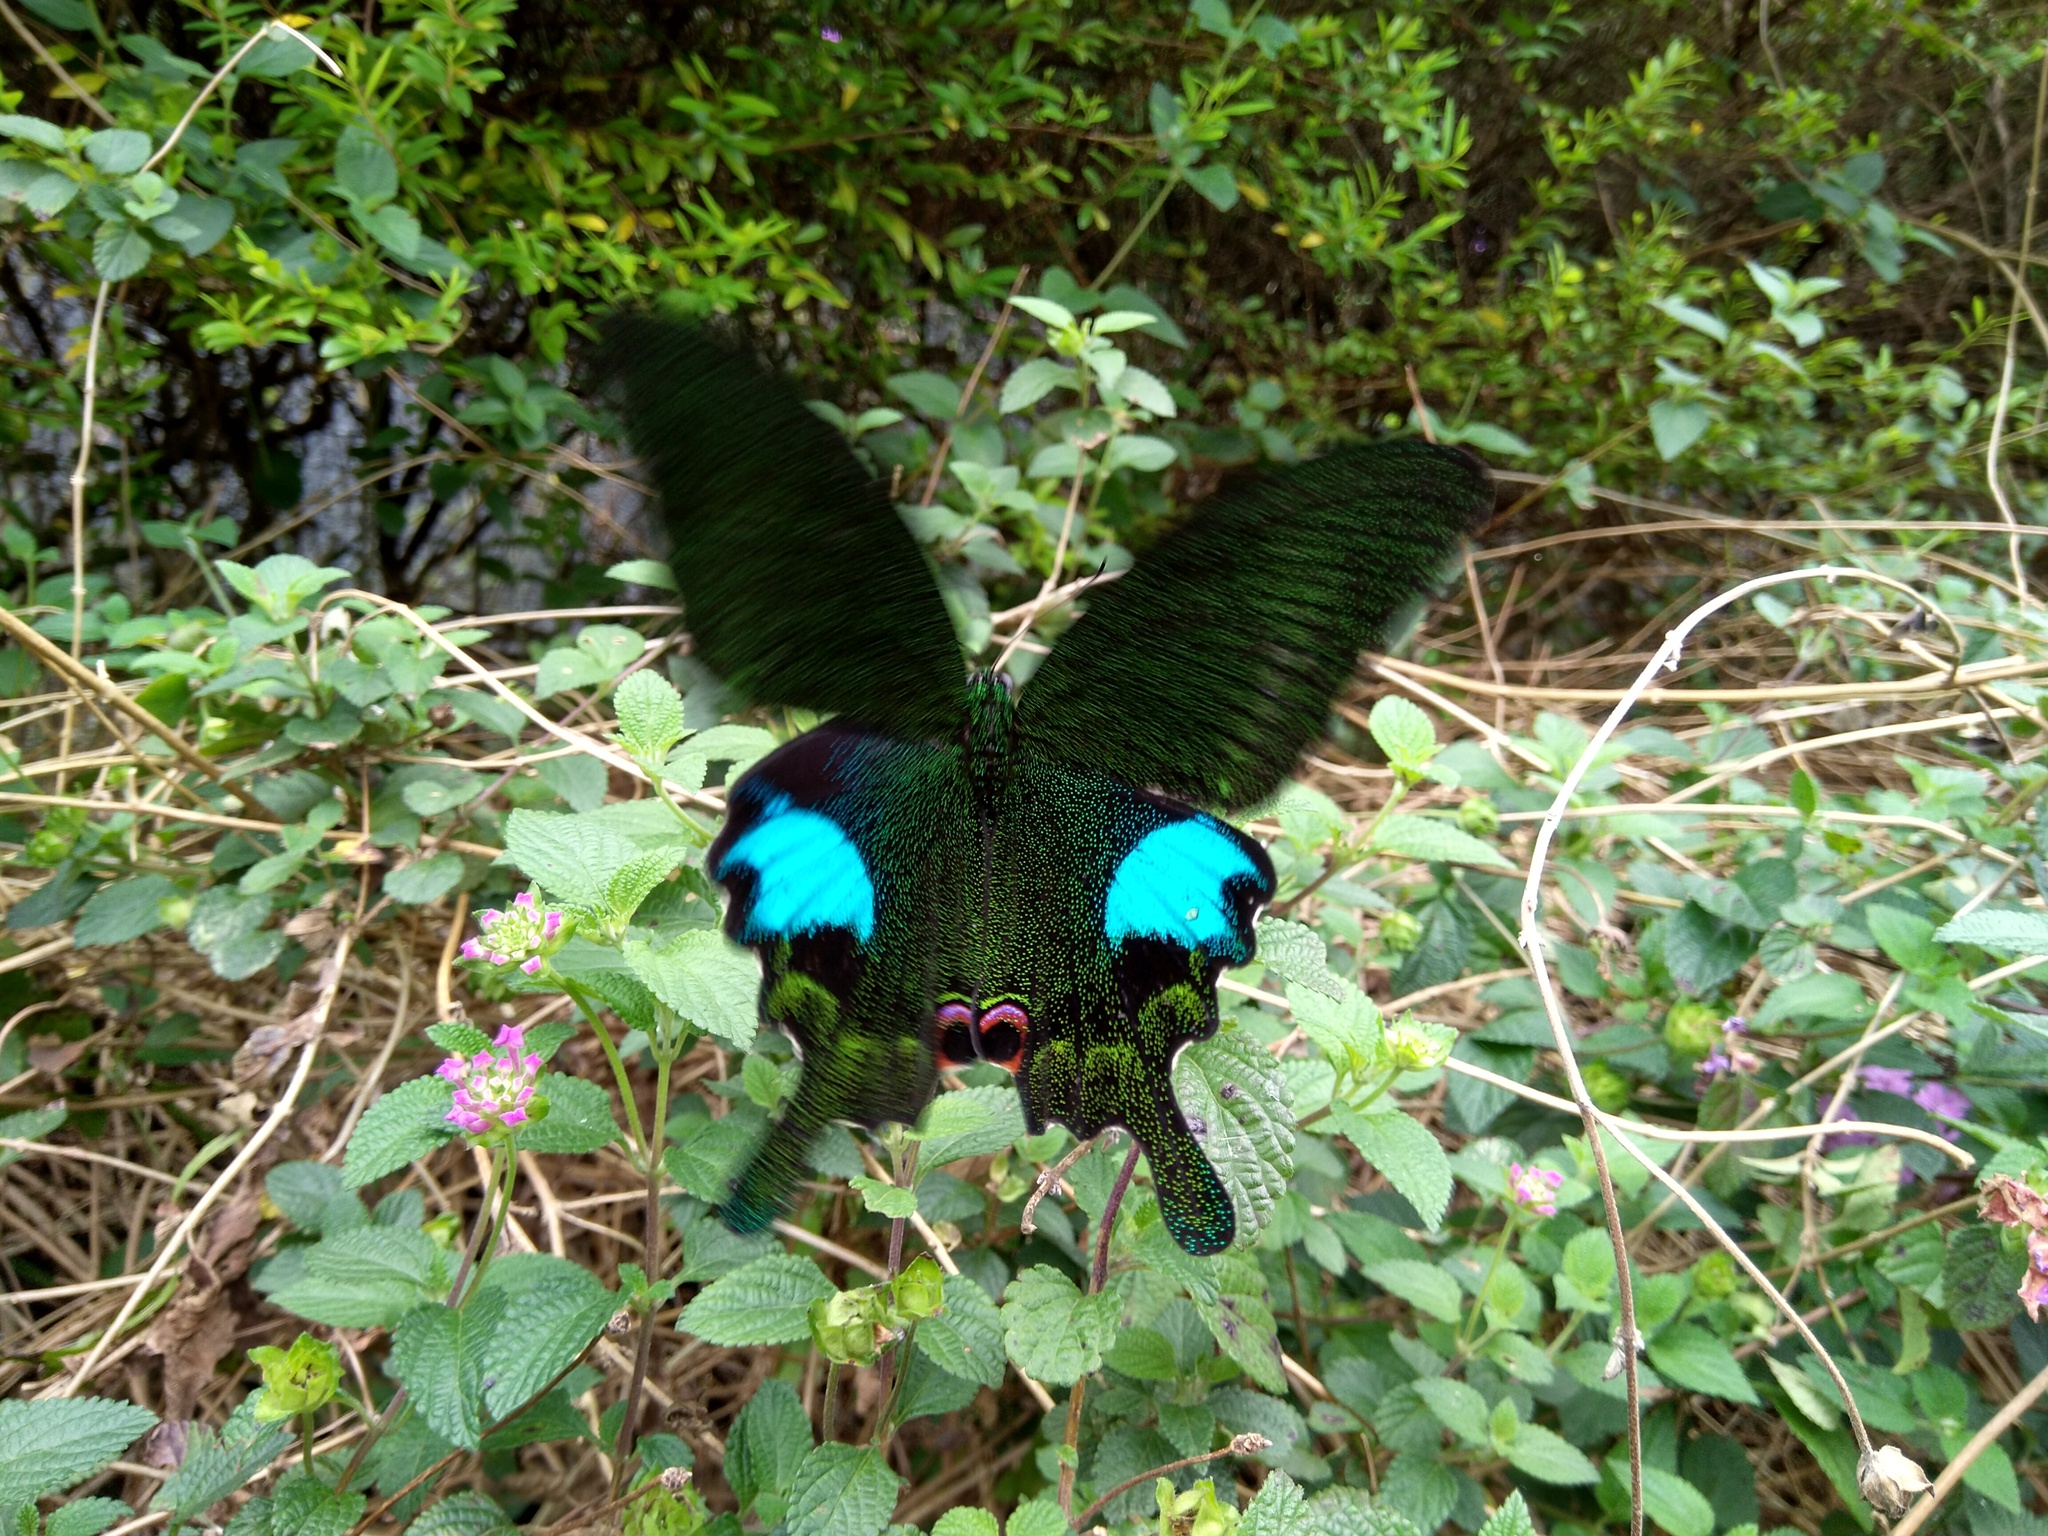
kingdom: Animalia
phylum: Arthropoda
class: Insecta
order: Lepidoptera
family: Papilionidae
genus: Papilio
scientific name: Papilio paris
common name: Paris peacock
